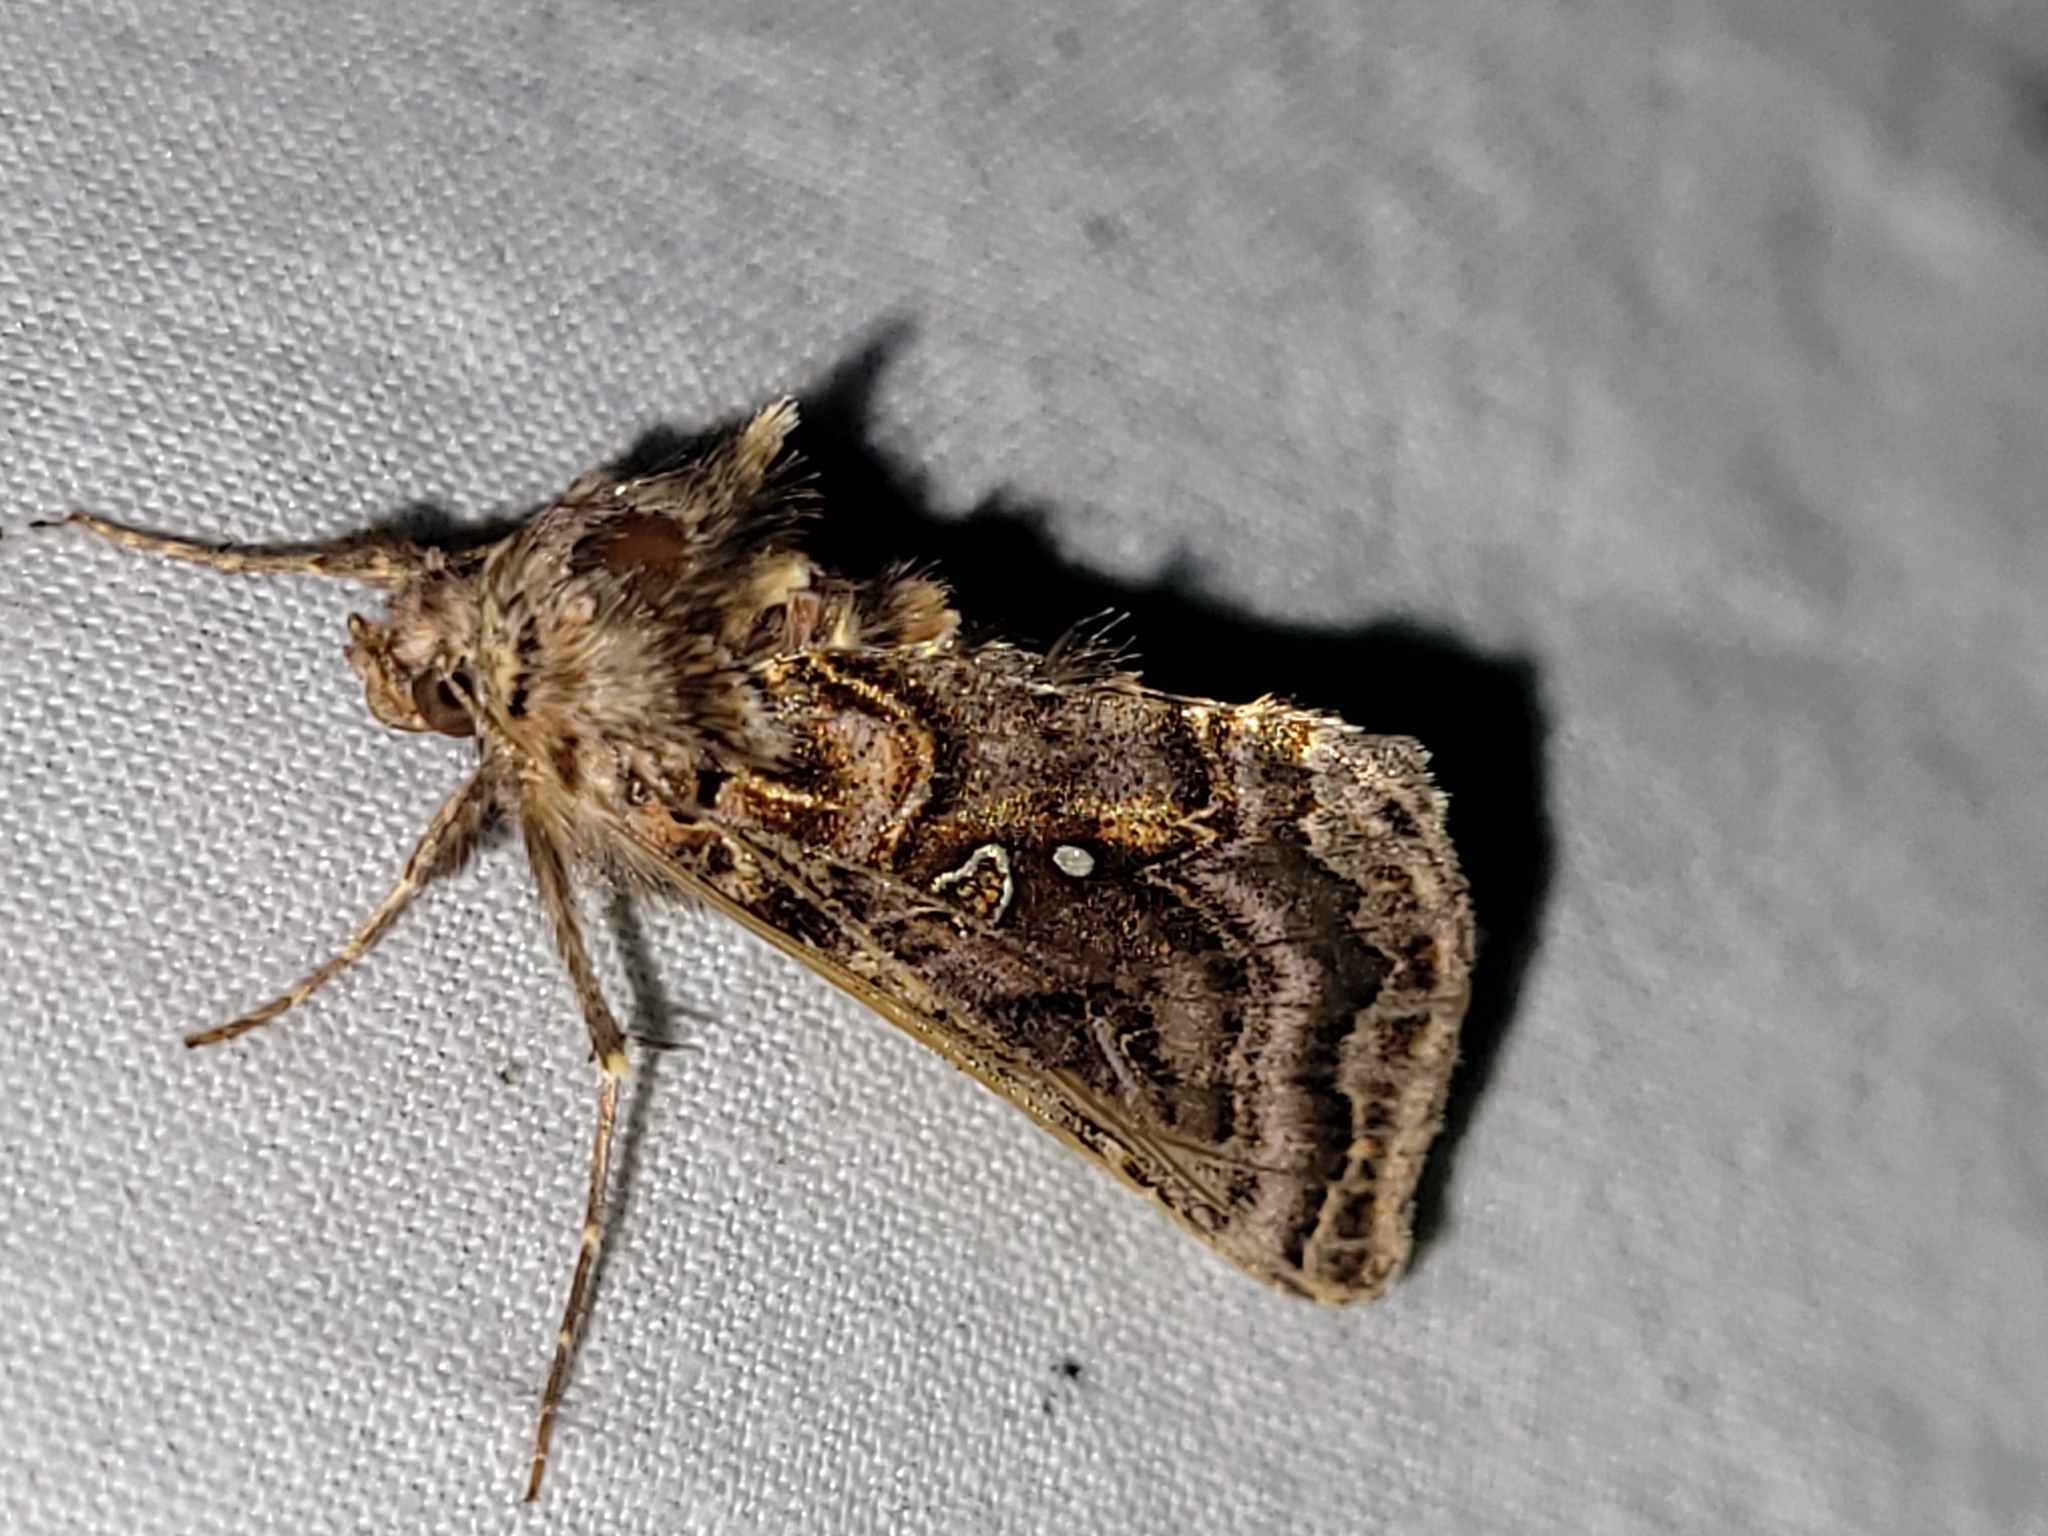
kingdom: Animalia
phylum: Arthropoda
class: Insecta
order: Lepidoptera
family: Noctuidae
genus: Autographa
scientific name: Autographa mappa
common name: Wavy chestnut y moth
